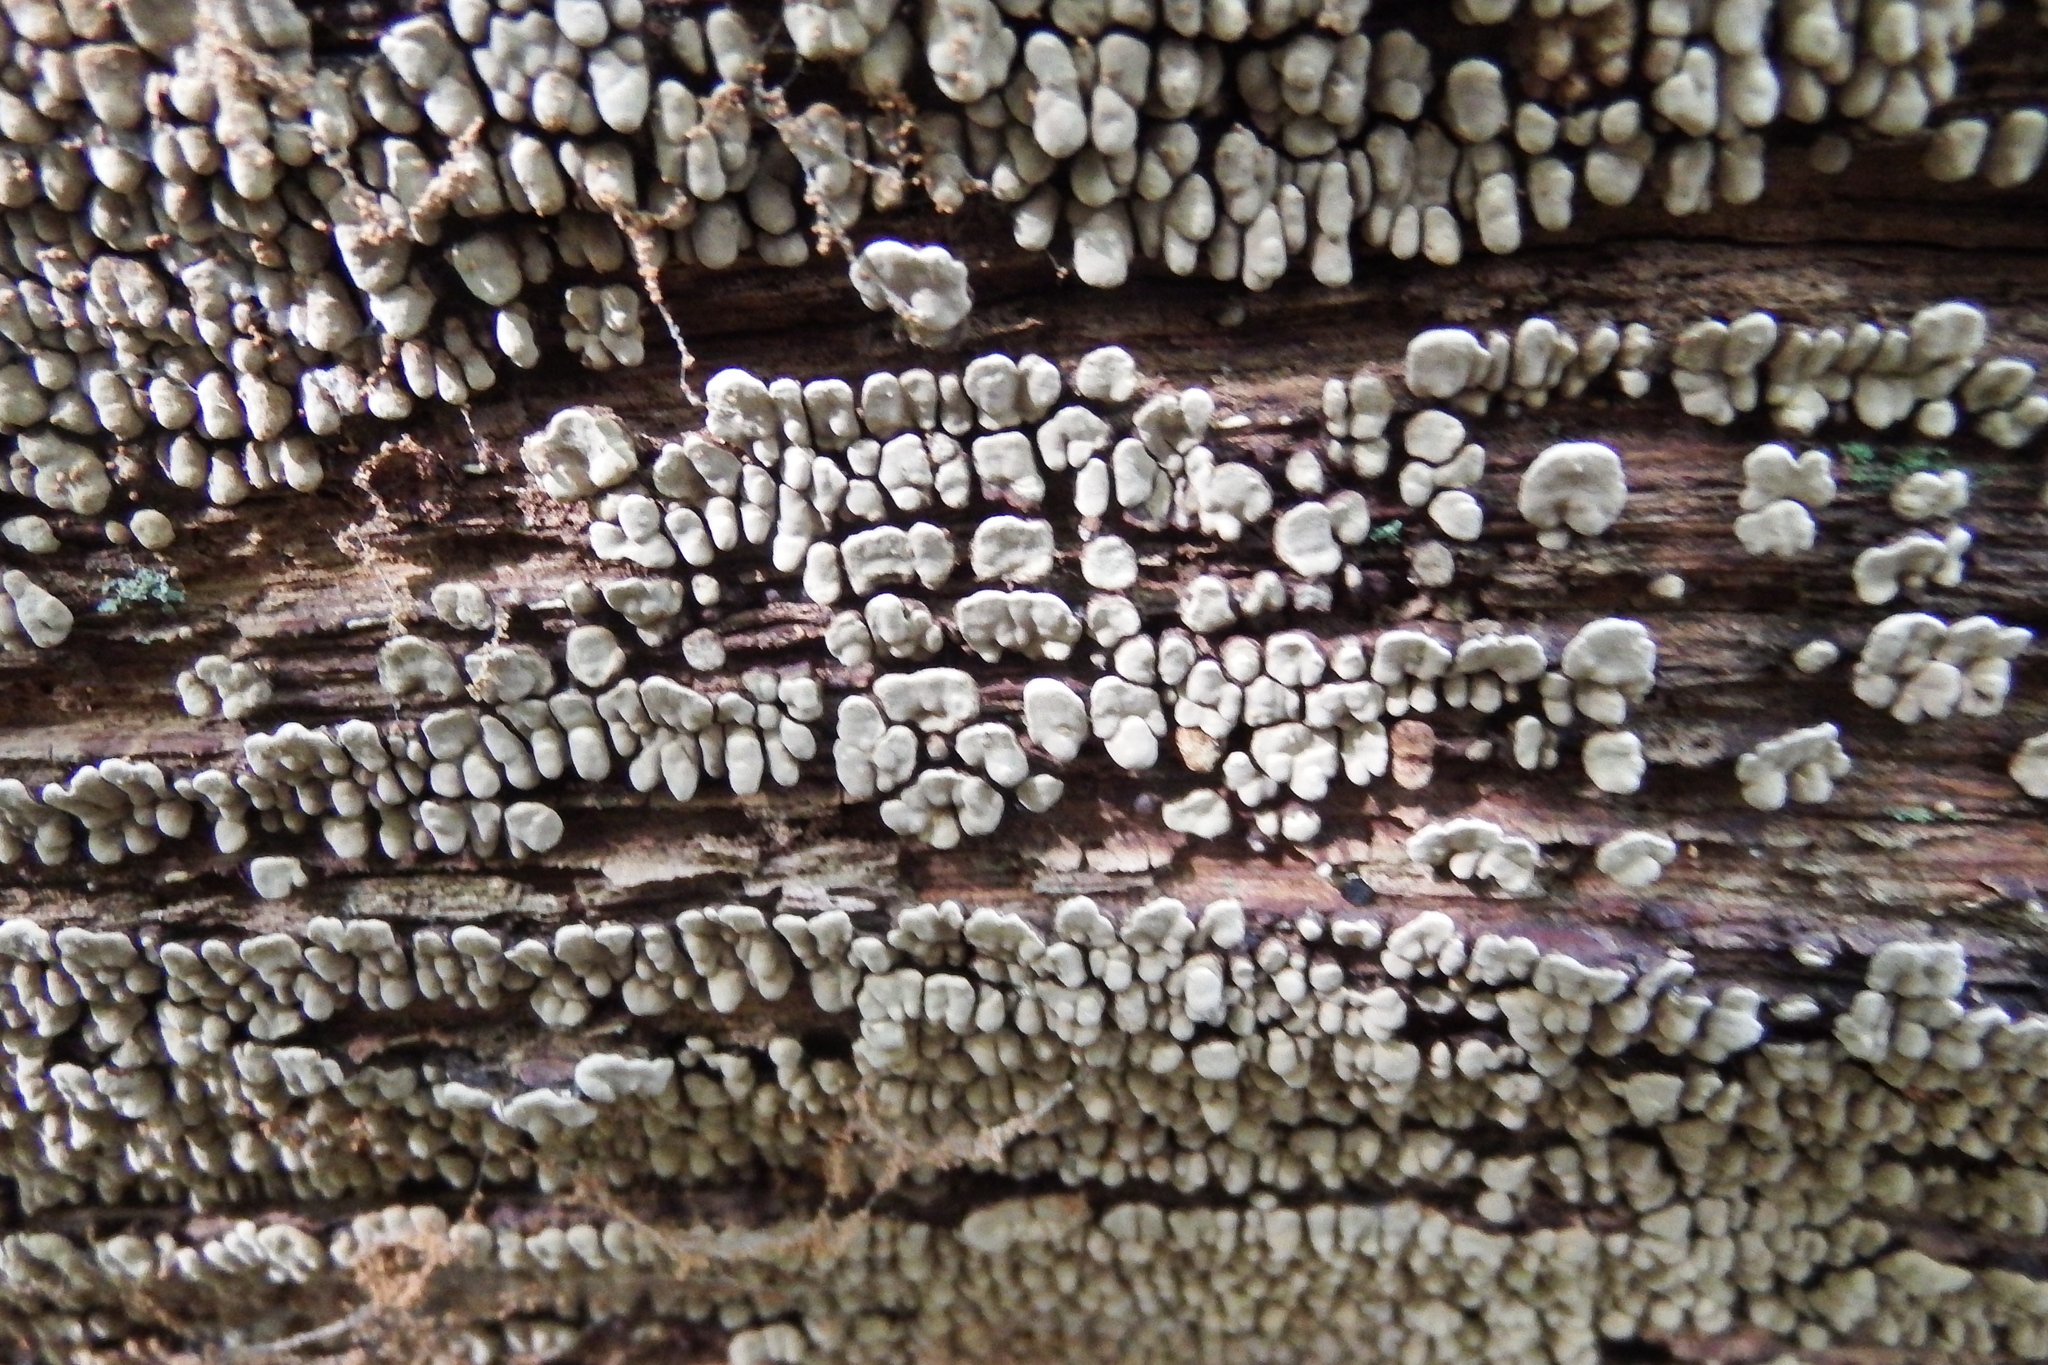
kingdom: Fungi
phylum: Basidiomycota
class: Agaricomycetes
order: Russulales
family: Stereaceae
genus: Xylobolus
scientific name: Xylobolus frustulatus
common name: Ceramic parchment
